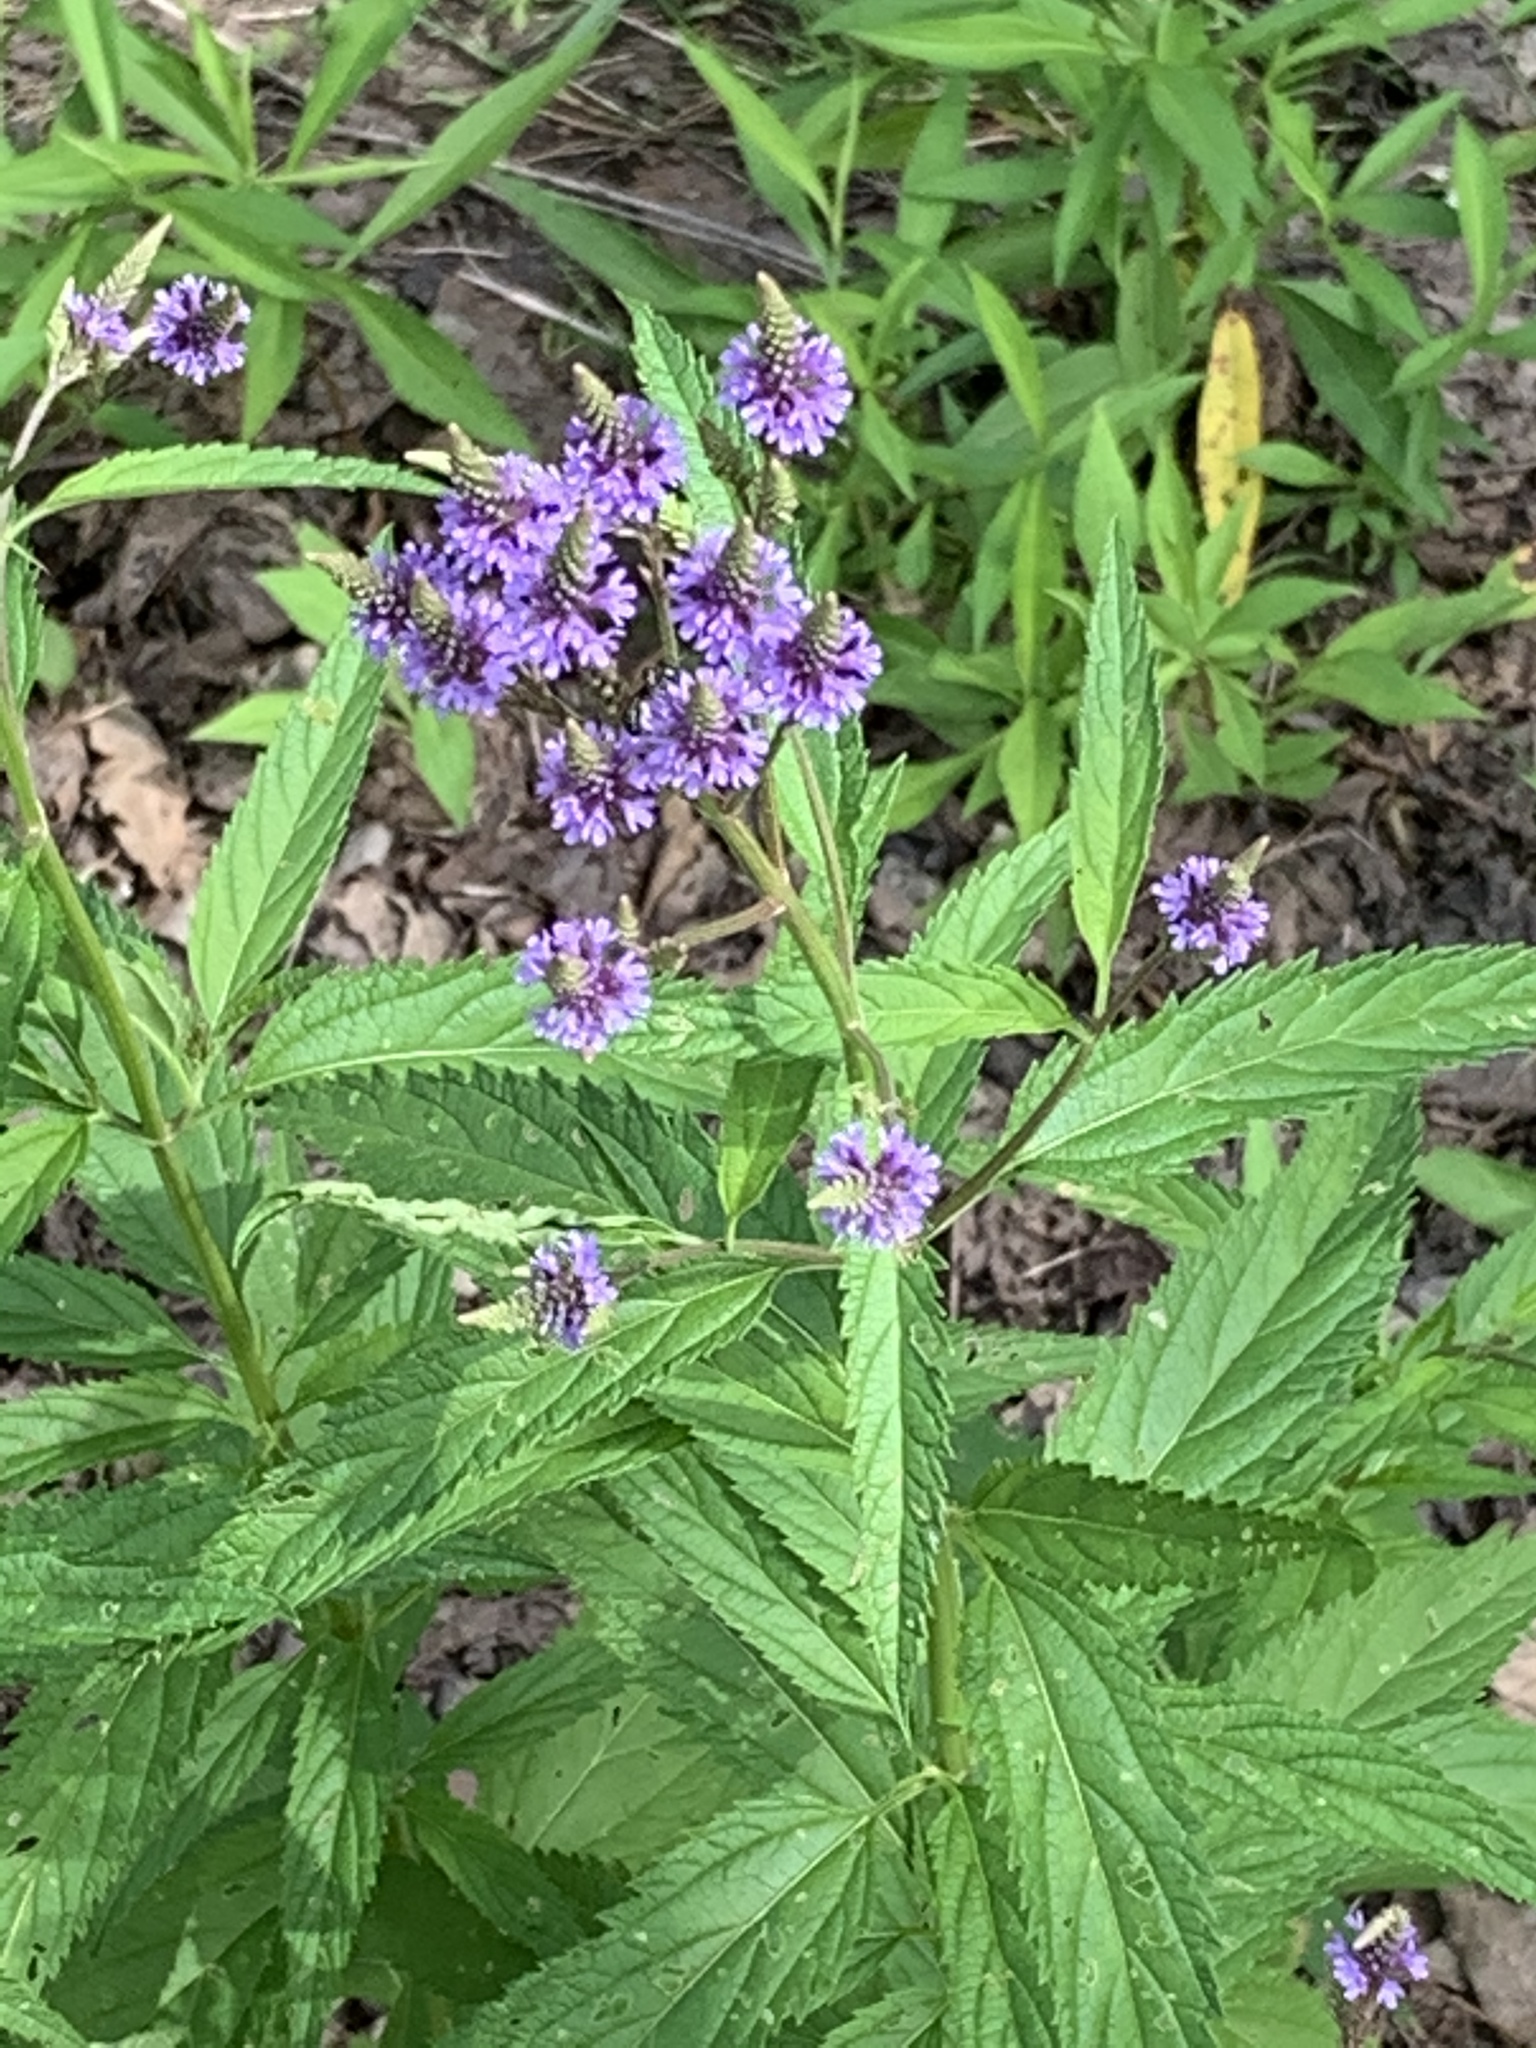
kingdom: Plantae
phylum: Tracheophyta
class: Magnoliopsida
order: Lamiales
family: Verbenaceae
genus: Verbena
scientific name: Verbena hastata
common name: American blue vervain
